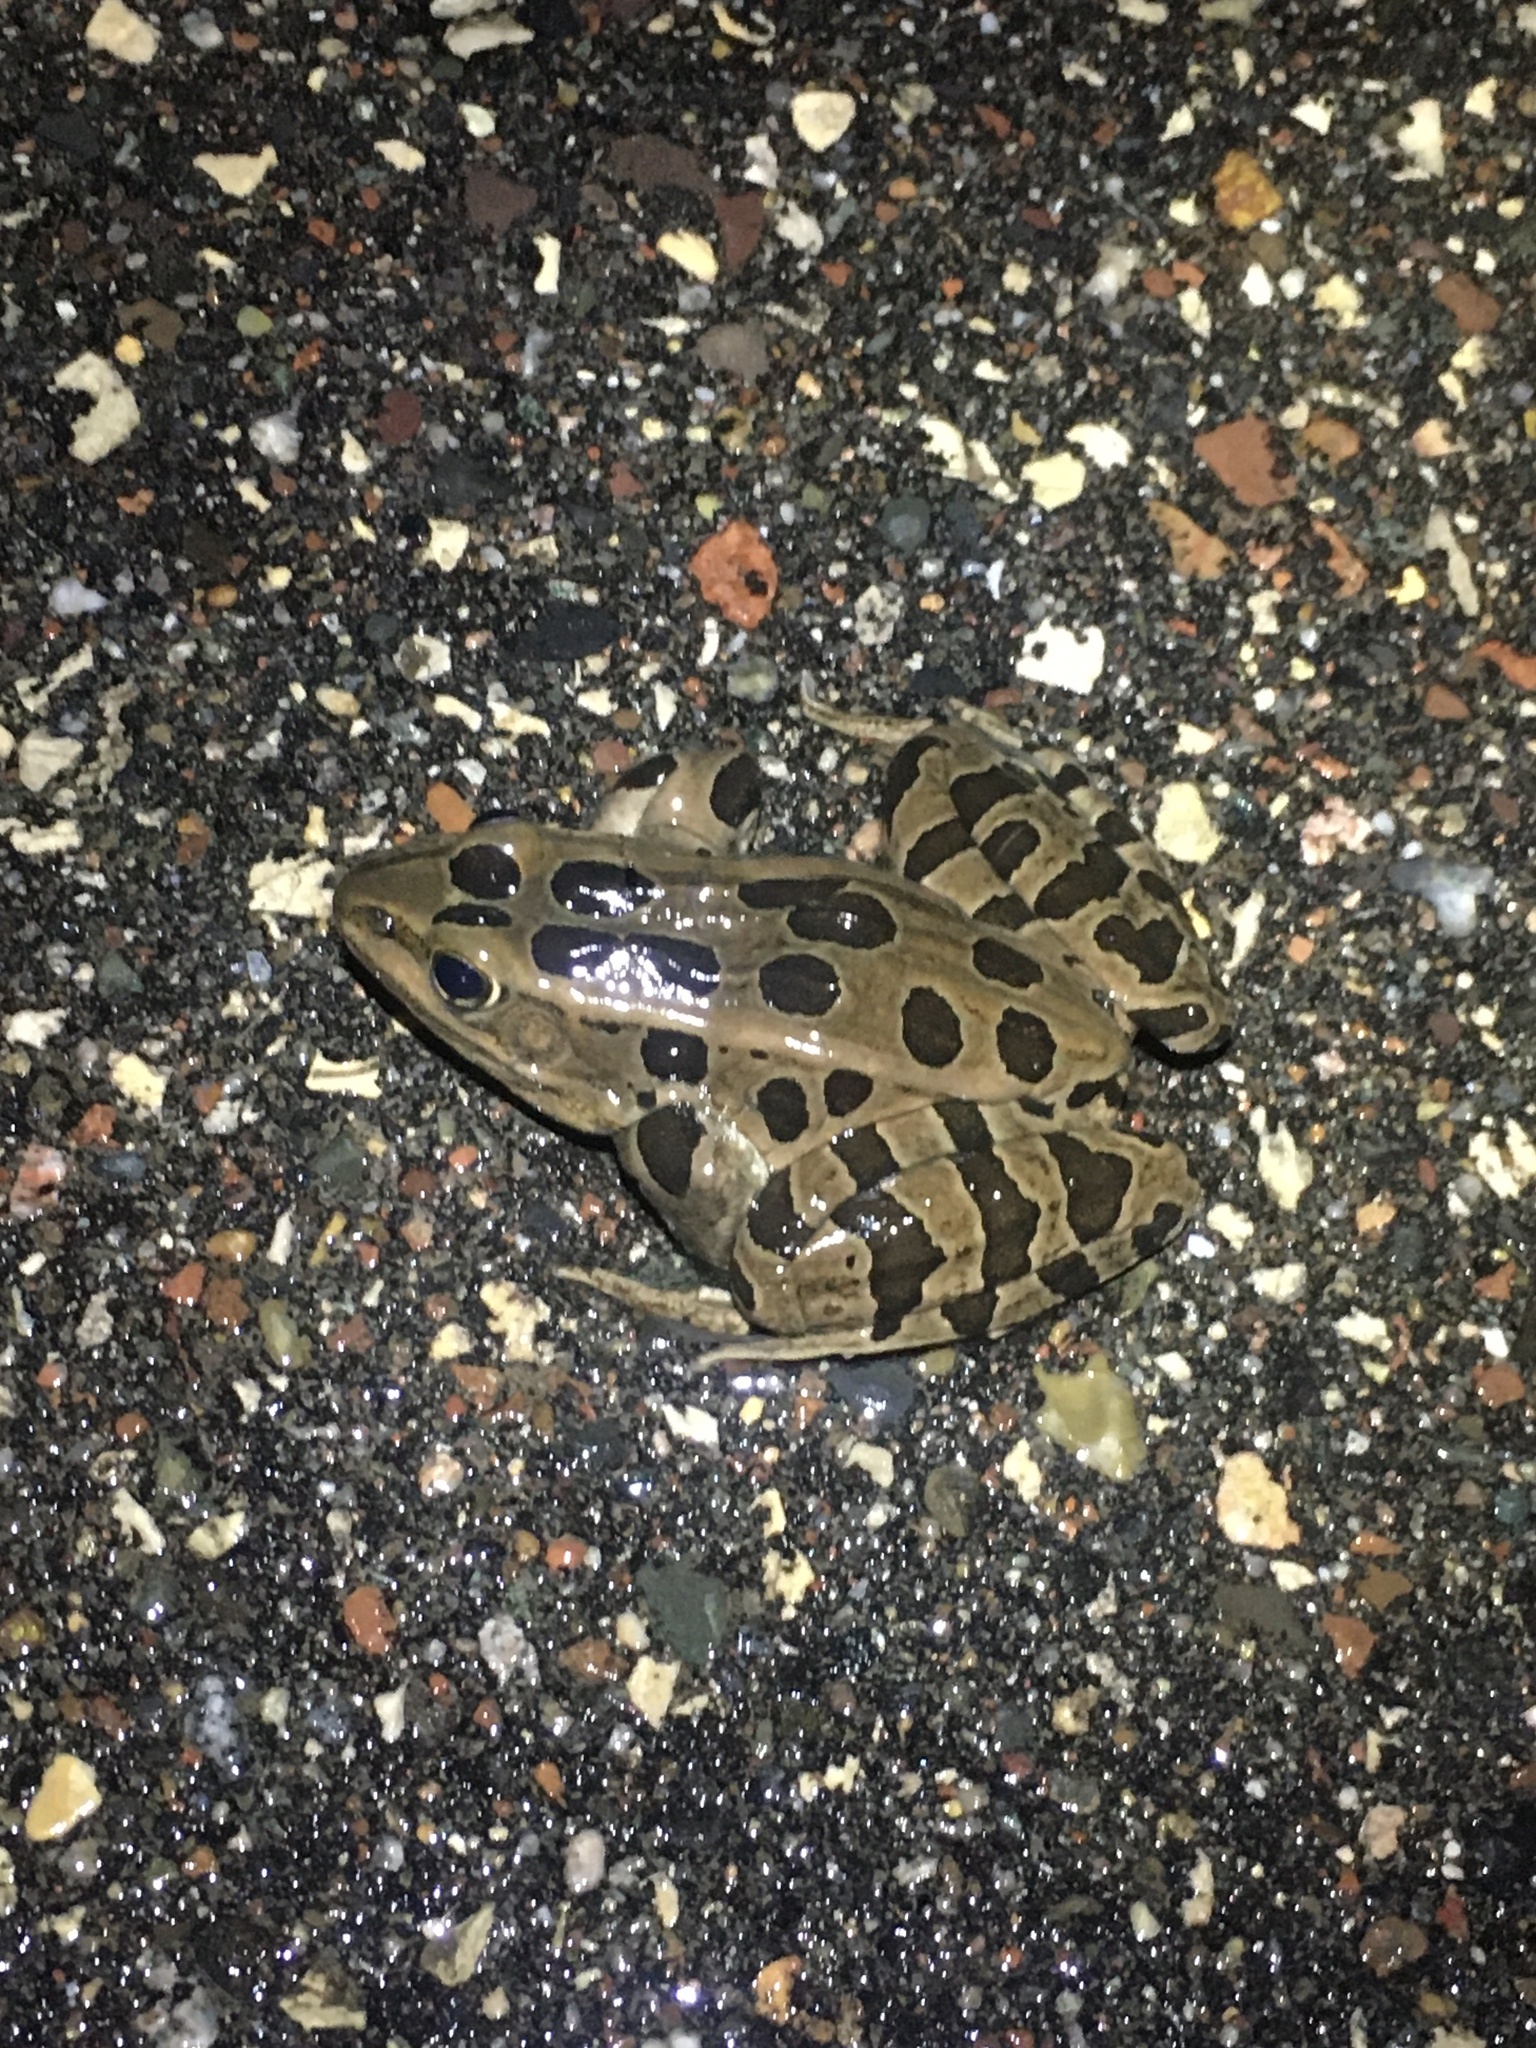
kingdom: Animalia
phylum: Chordata
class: Amphibia
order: Anura
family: Ranidae
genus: Lithobates
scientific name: Lithobates pipiens
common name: Northern leopard frog
